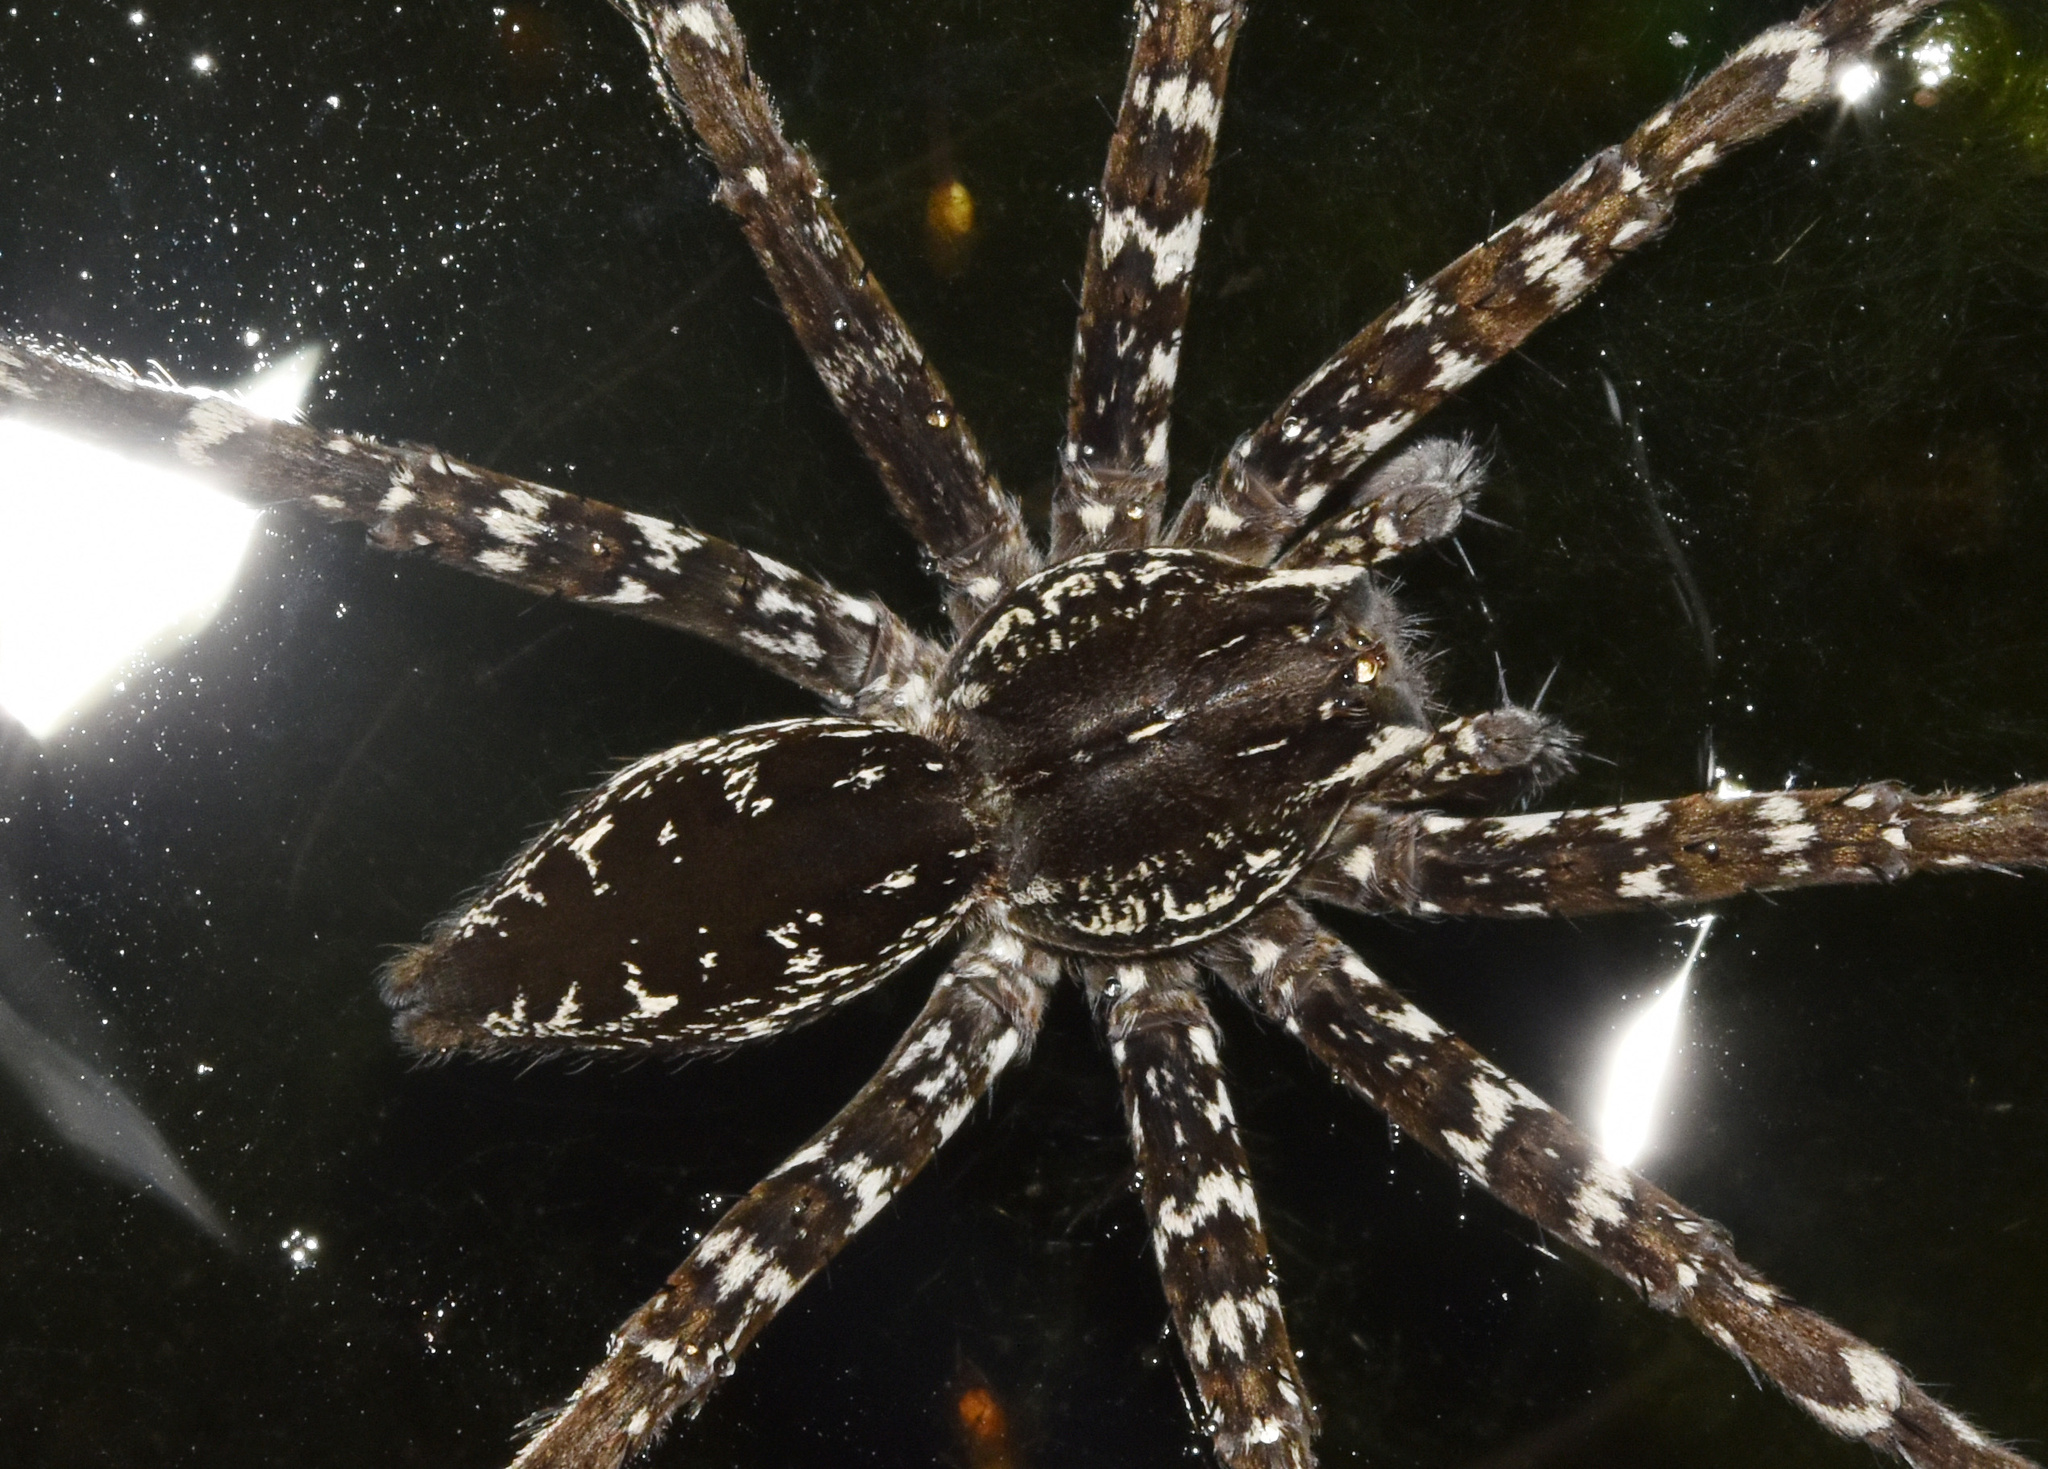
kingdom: Animalia
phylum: Arthropoda
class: Arachnida
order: Araneae
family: Pisauridae
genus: Nilus
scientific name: Nilus curtus
